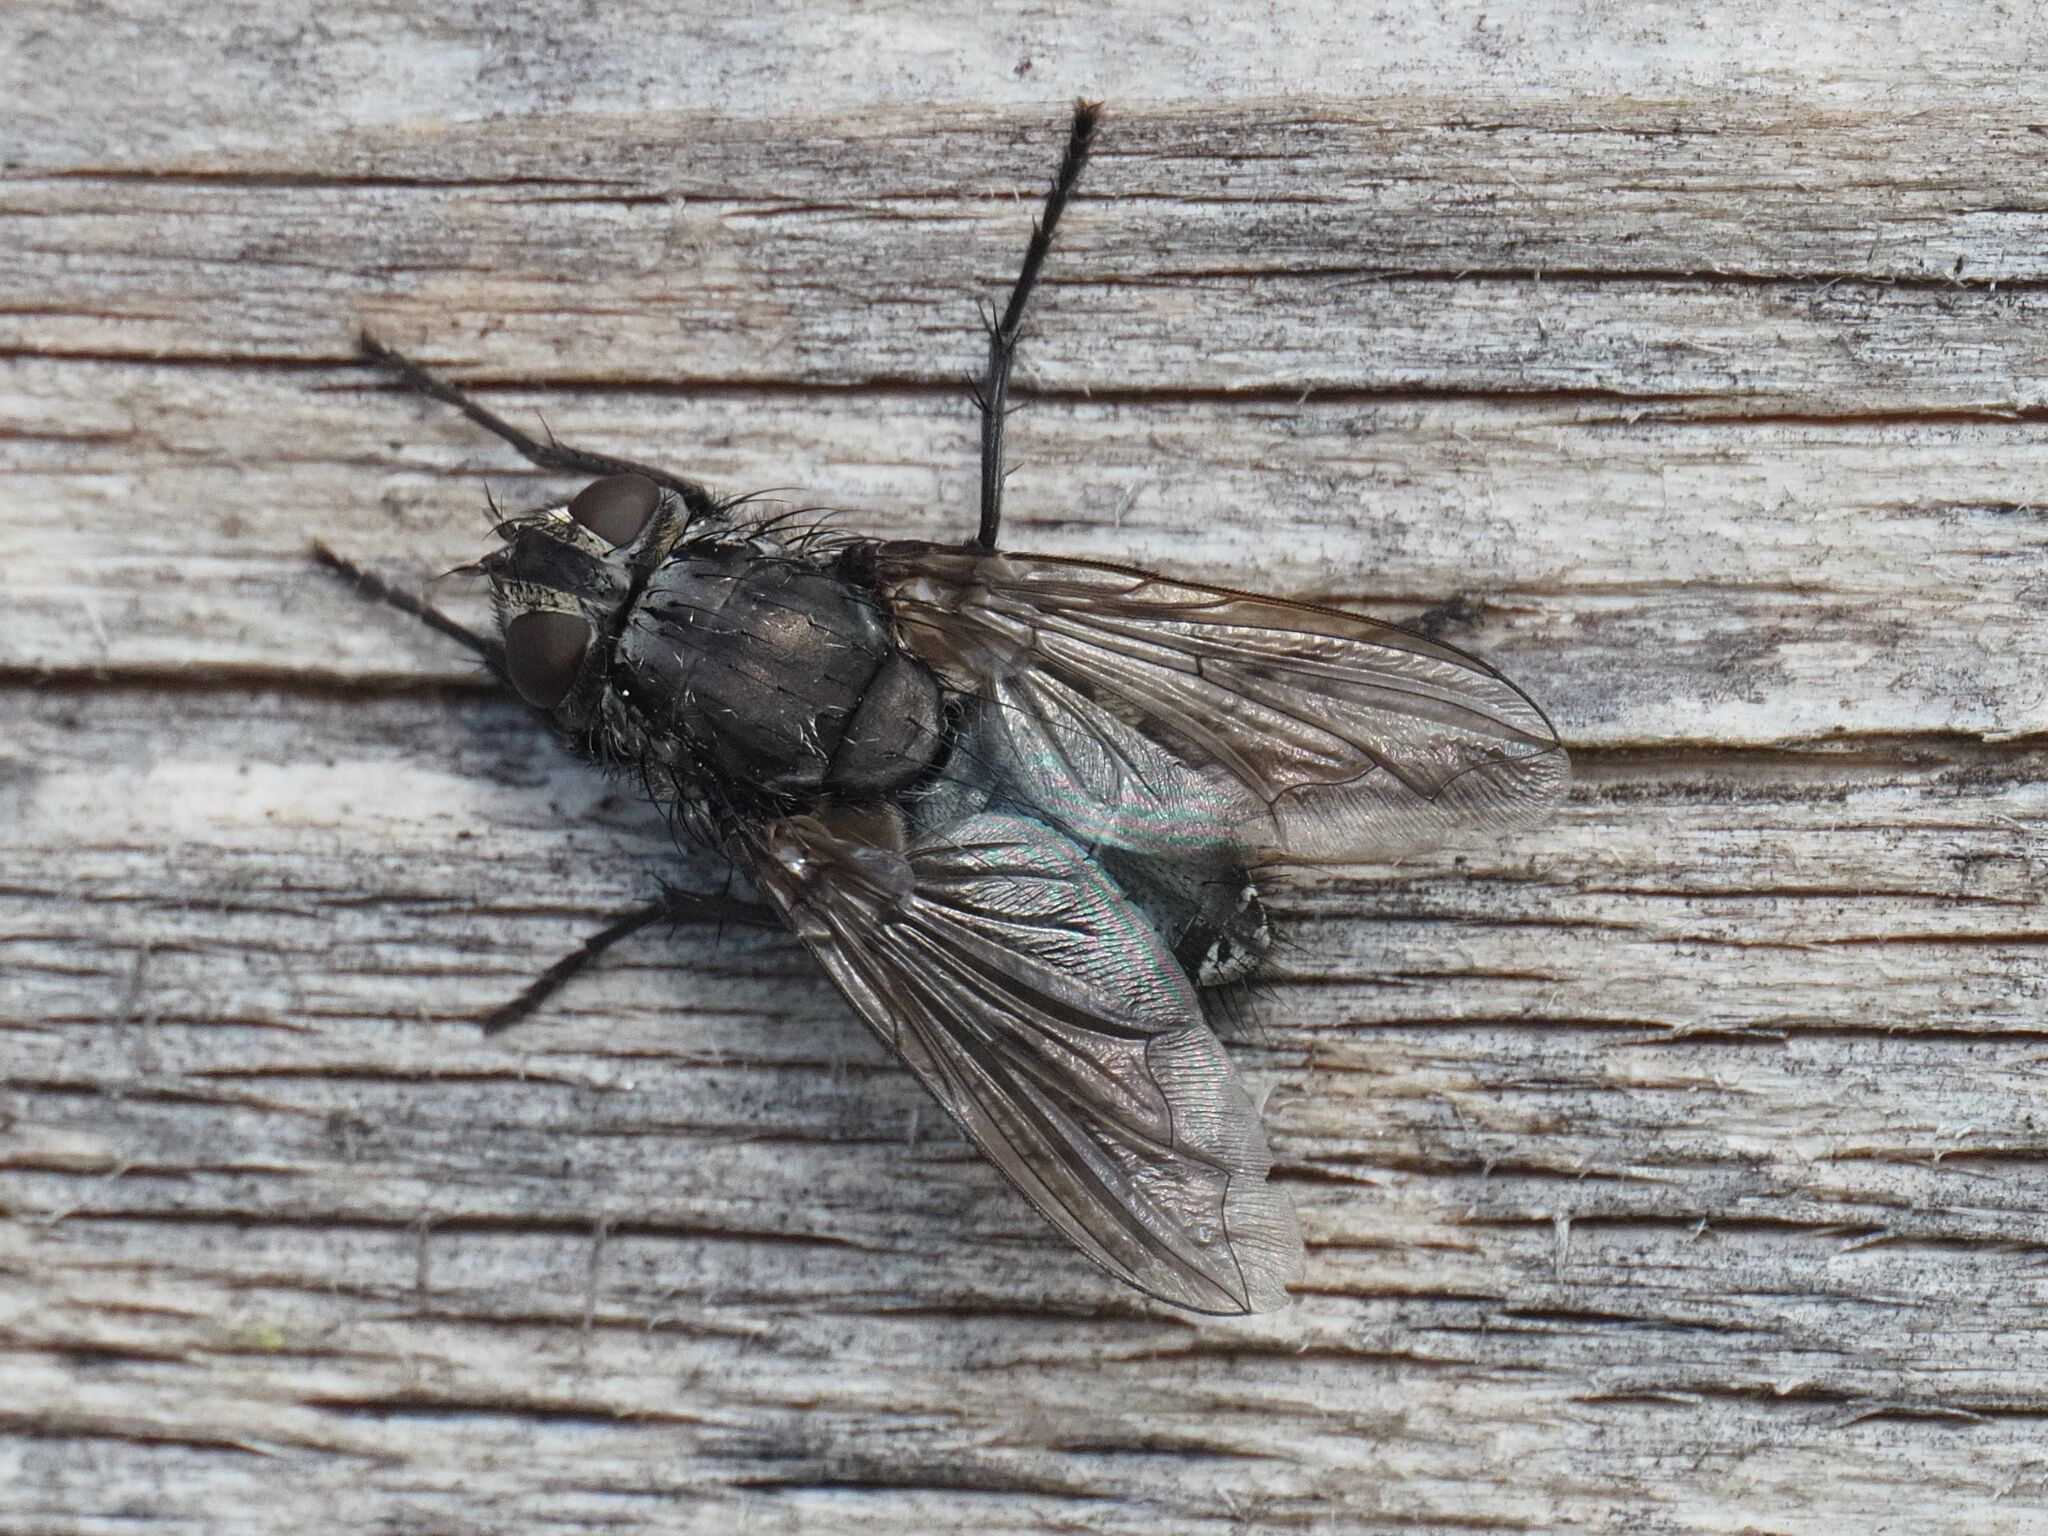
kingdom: Animalia
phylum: Arthropoda
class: Insecta
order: Diptera
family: Polleniidae
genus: Pollenia
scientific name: Pollenia vagabunda
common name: Vagabund cluster fly
